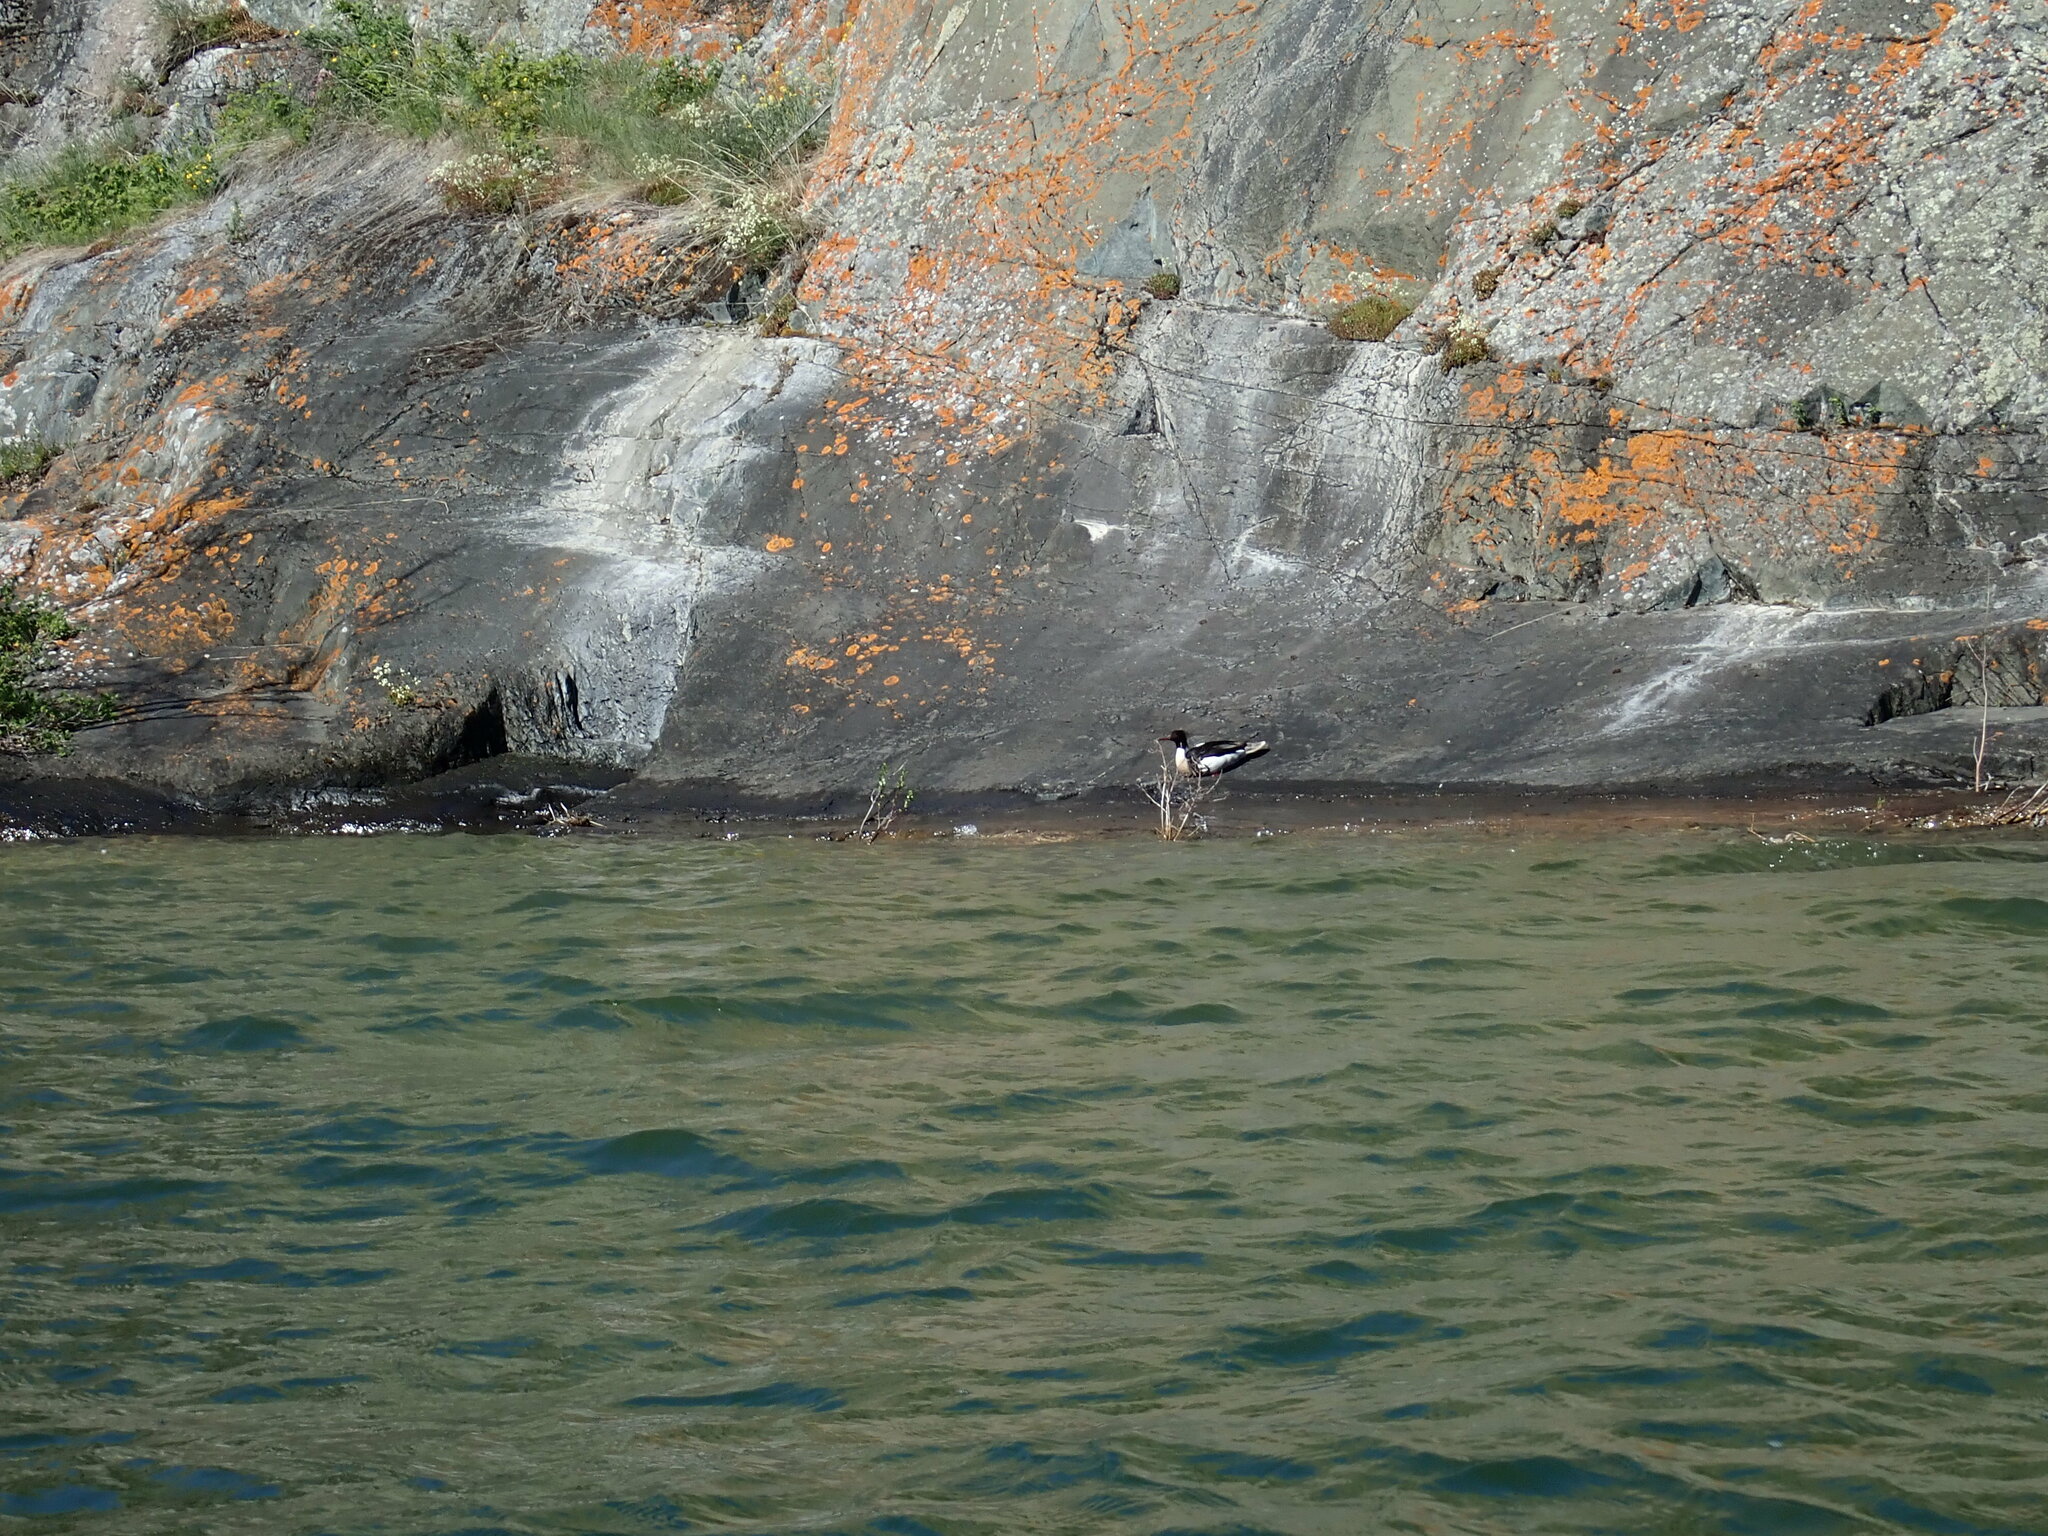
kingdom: Animalia
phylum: Chordata
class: Aves
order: Anseriformes
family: Anatidae
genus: Mergus
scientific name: Mergus merganser
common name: Common merganser
